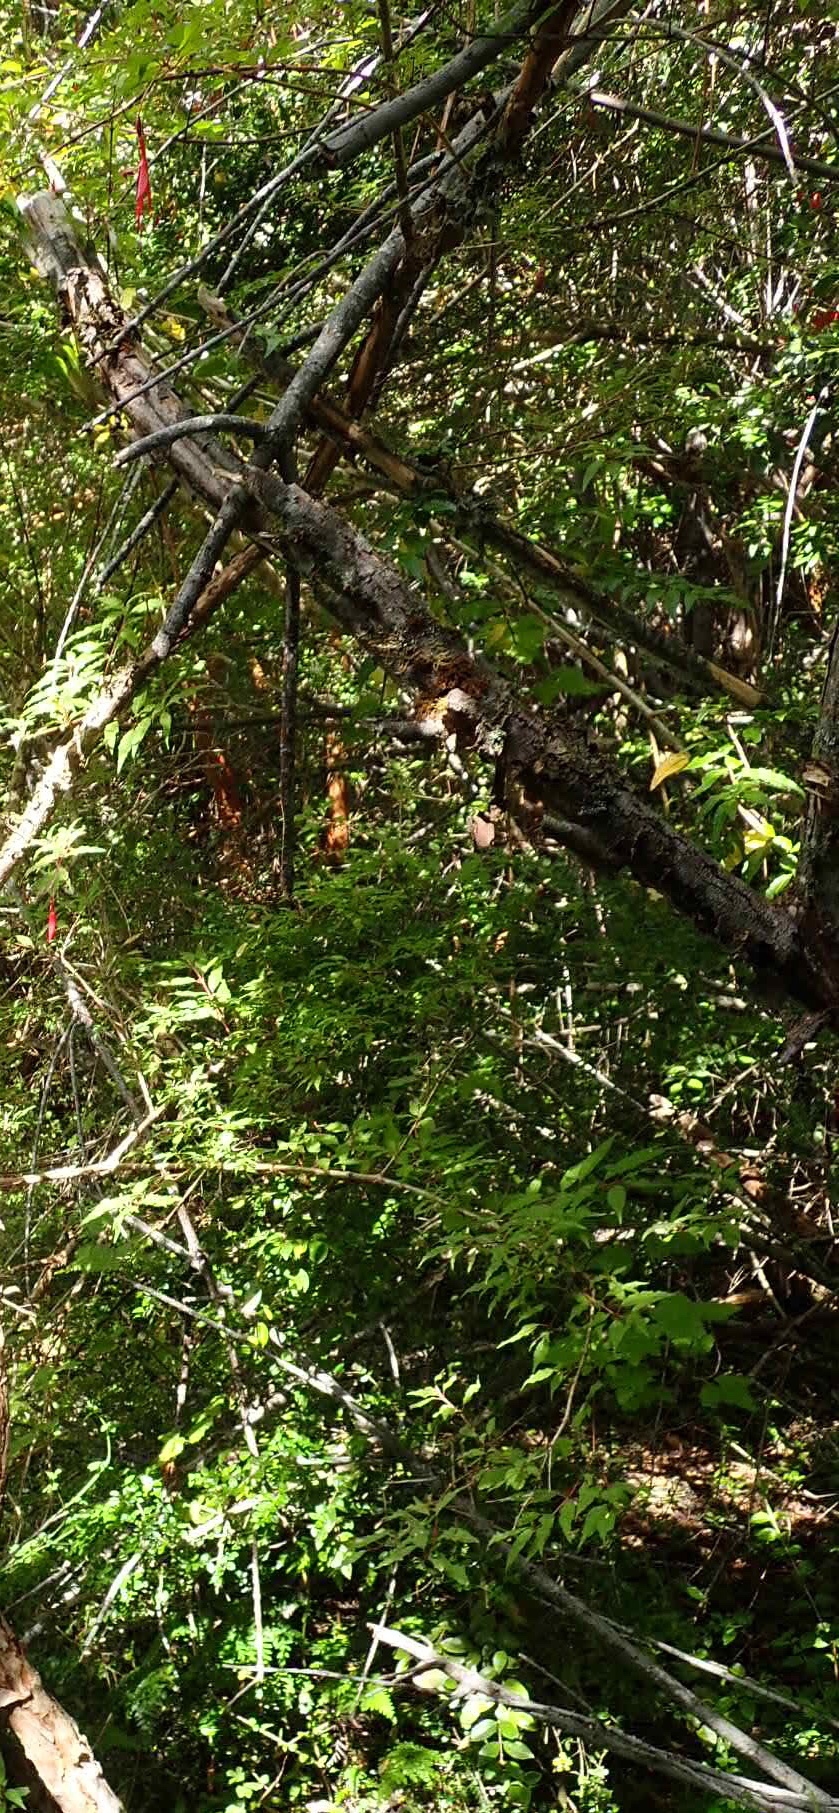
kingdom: Plantae
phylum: Tracheophyta
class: Magnoliopsida
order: Myrtales
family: Onagraceae
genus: Fuchsia
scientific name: Fuchsia magellanica
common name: Hardy fuchsia
